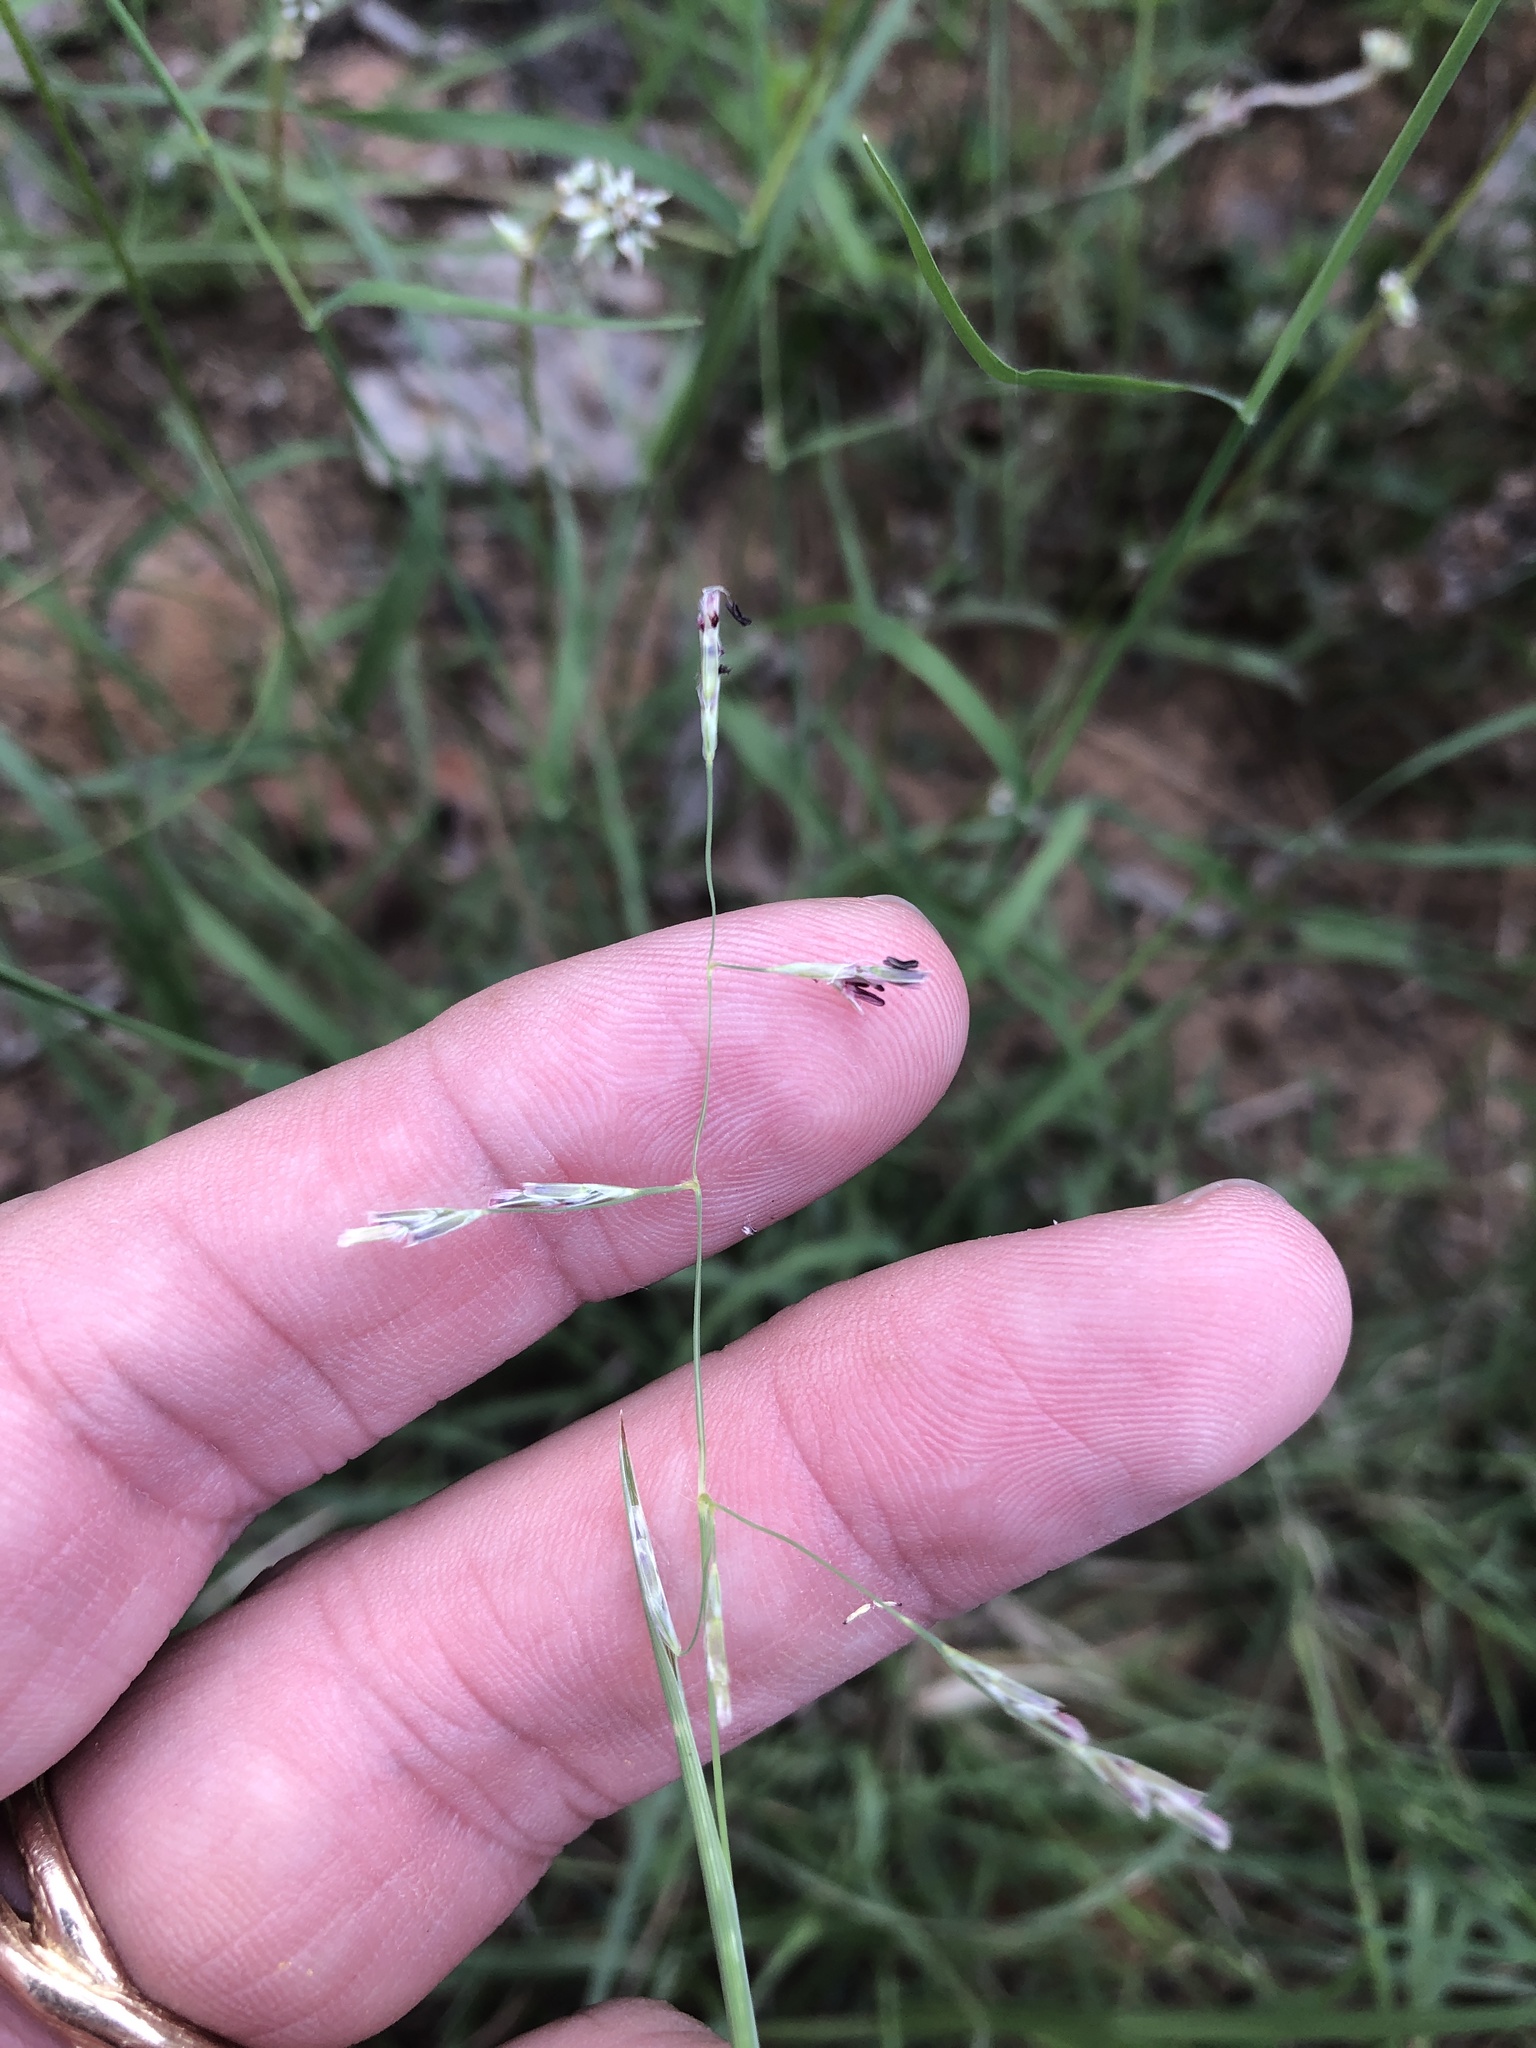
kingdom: Plantae
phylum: Tracheophyta
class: Liliopsida
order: Poales
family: Poaceae
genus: Triplasis
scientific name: Triplasis purpurea
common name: Purple sand grass
